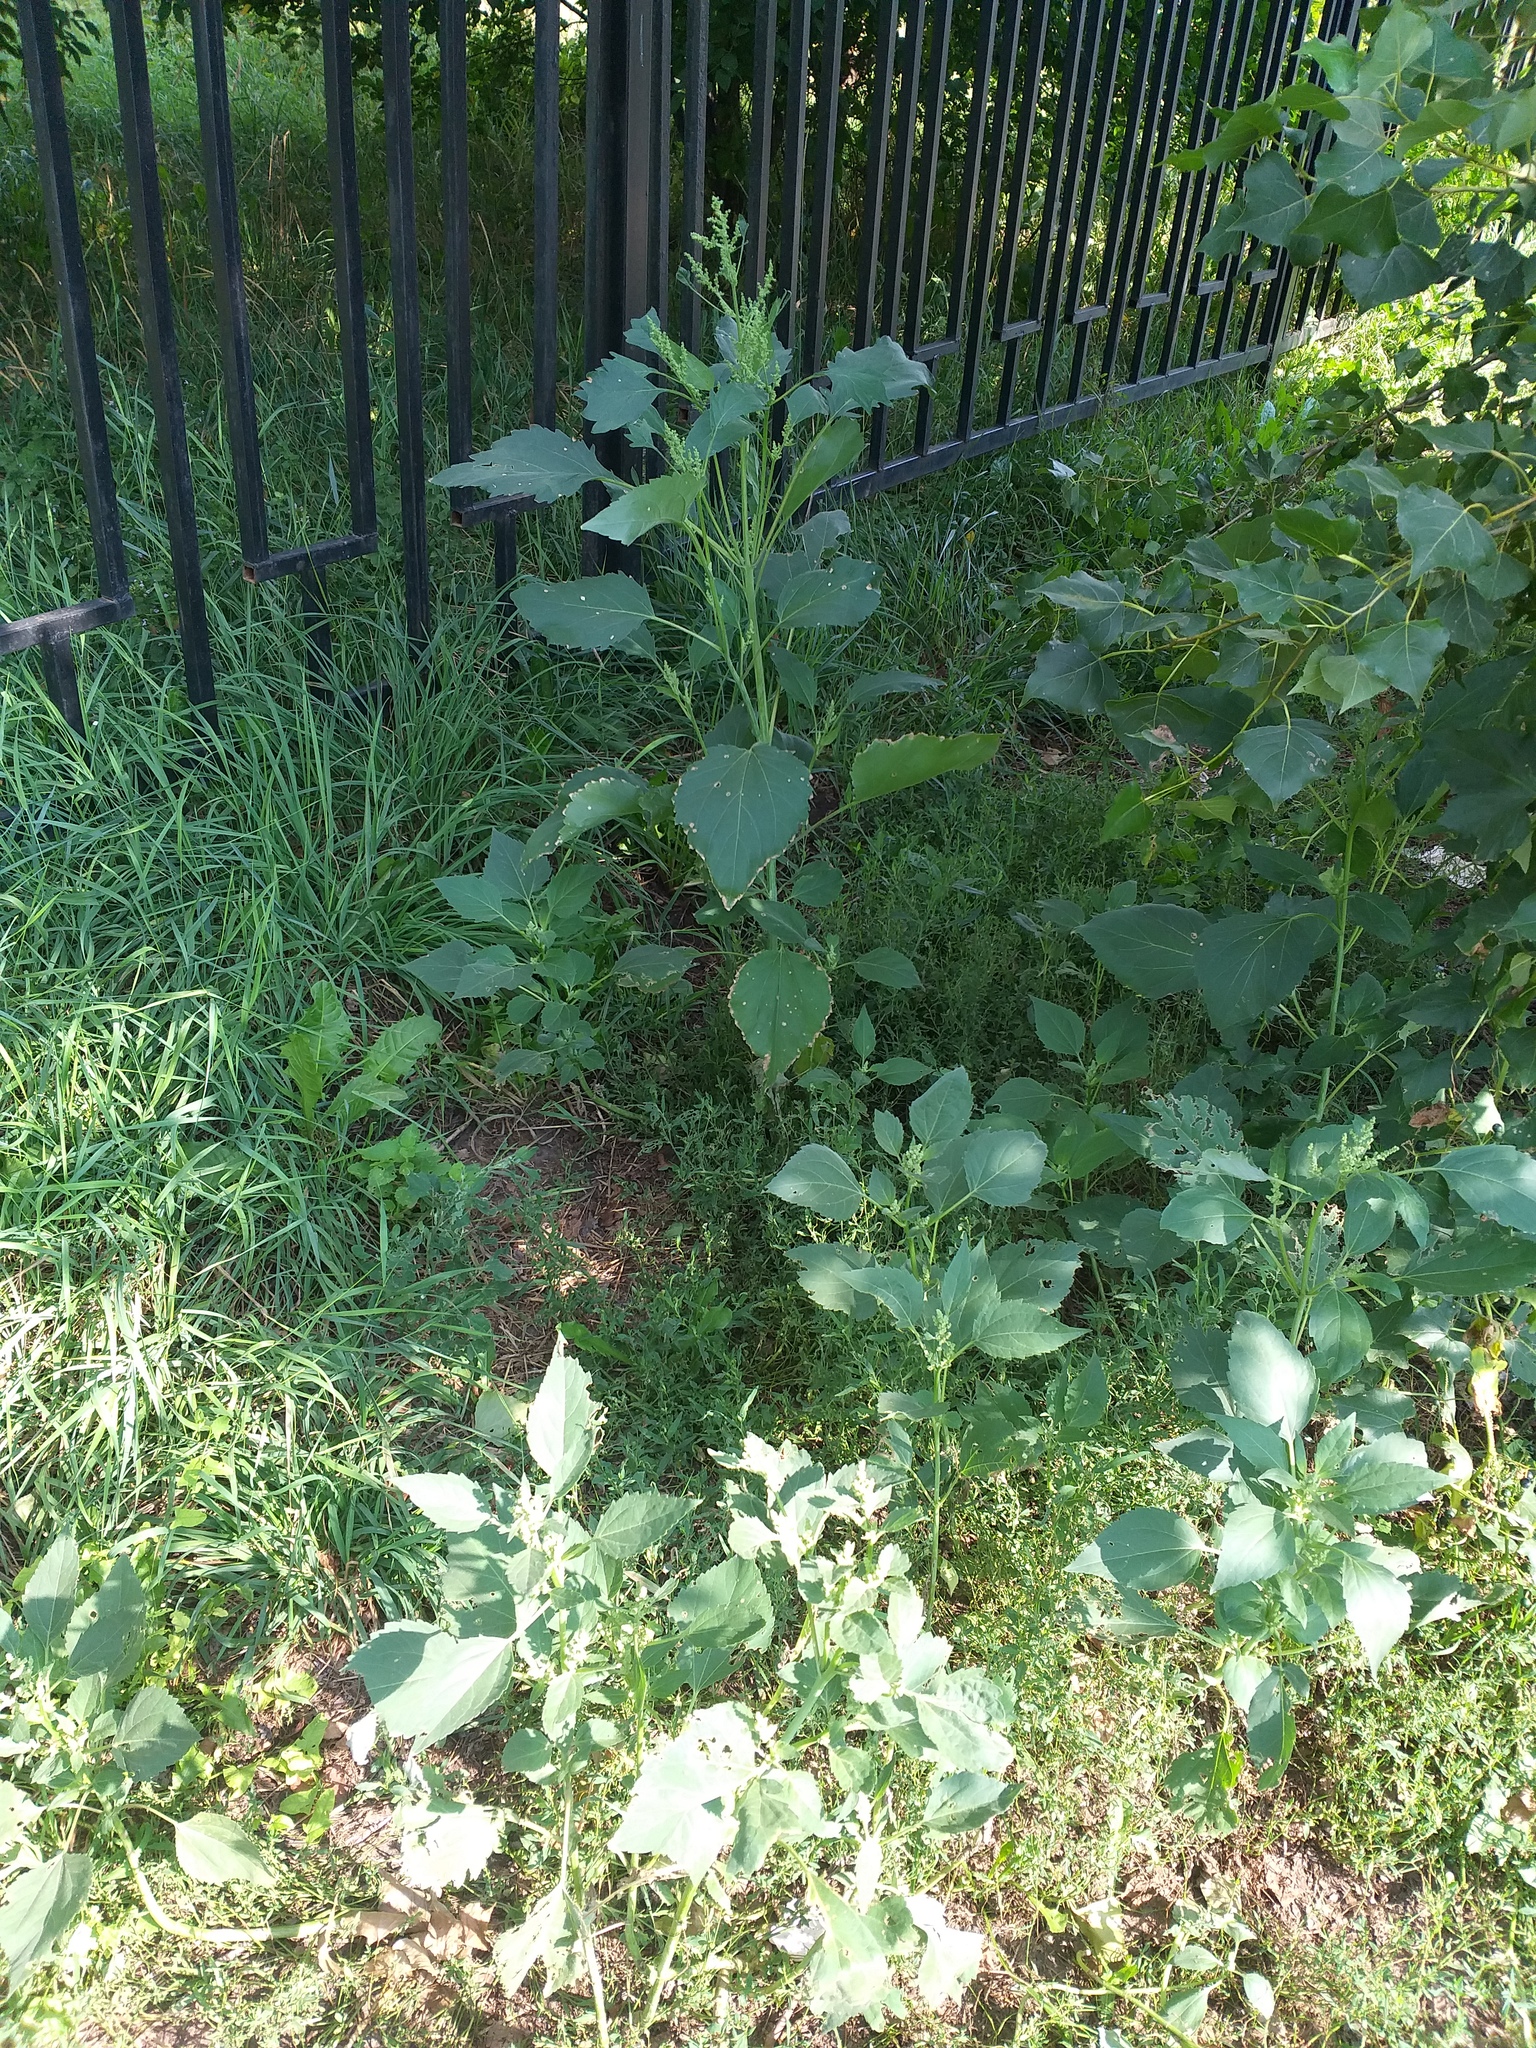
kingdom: Plantae
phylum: Tracheophyta
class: Magnoliopsida
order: Asterales
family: Asteraceae
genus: Cyclachaena
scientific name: Cyclachaena xanthiifolia
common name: Giant sumpweed
